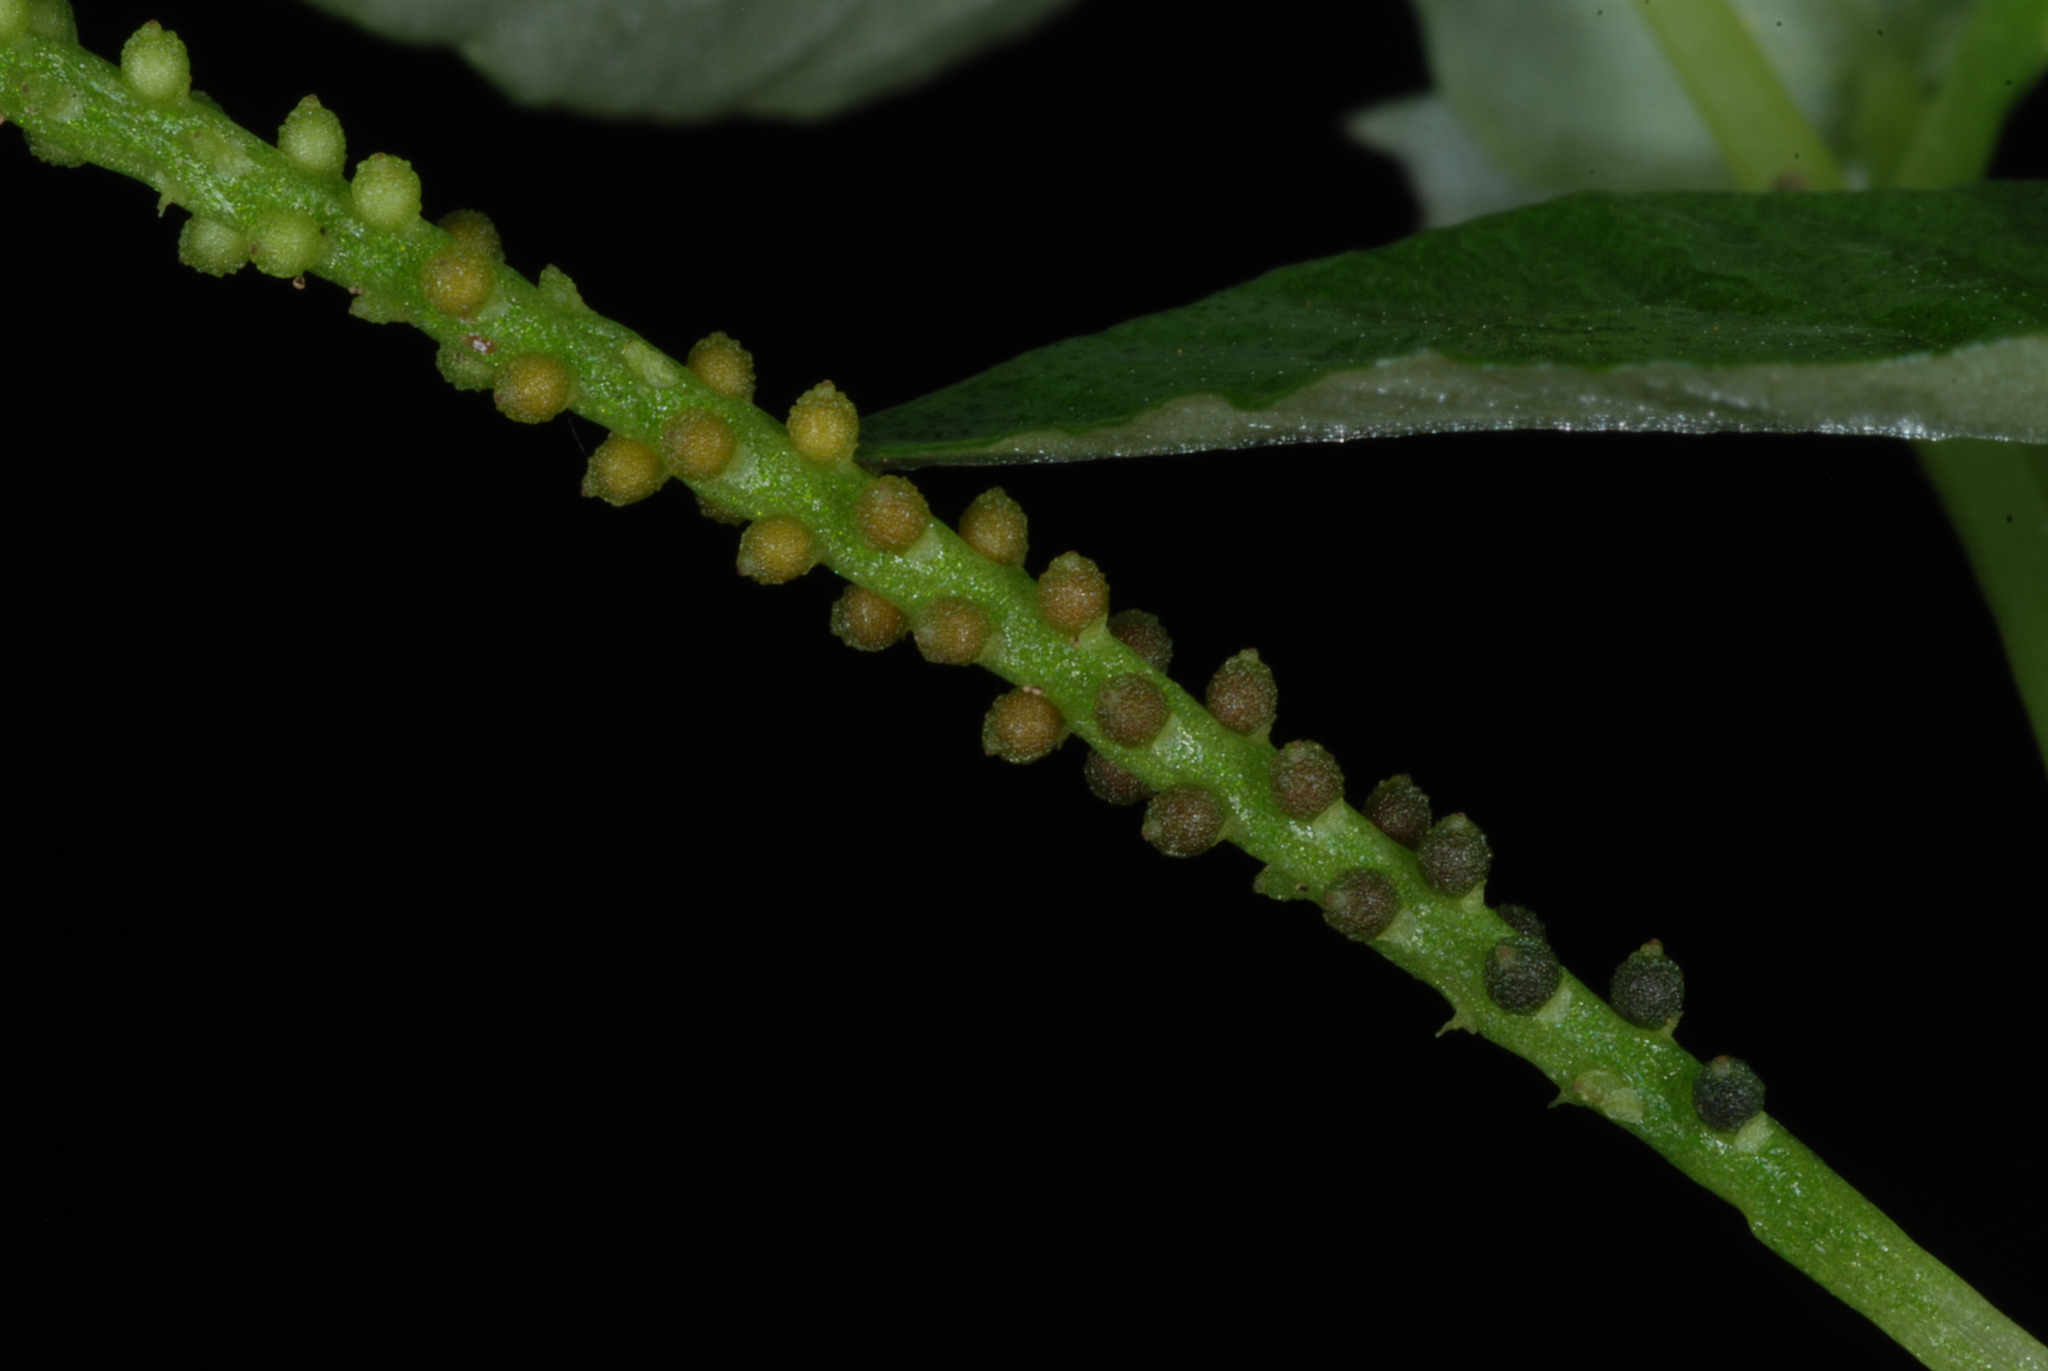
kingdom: Plantae
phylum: Tracheophyta
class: Magnoliopsida
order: Piperales
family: Piperaceae
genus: Peperomia
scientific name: Peperomia pellucida
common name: Man to man
